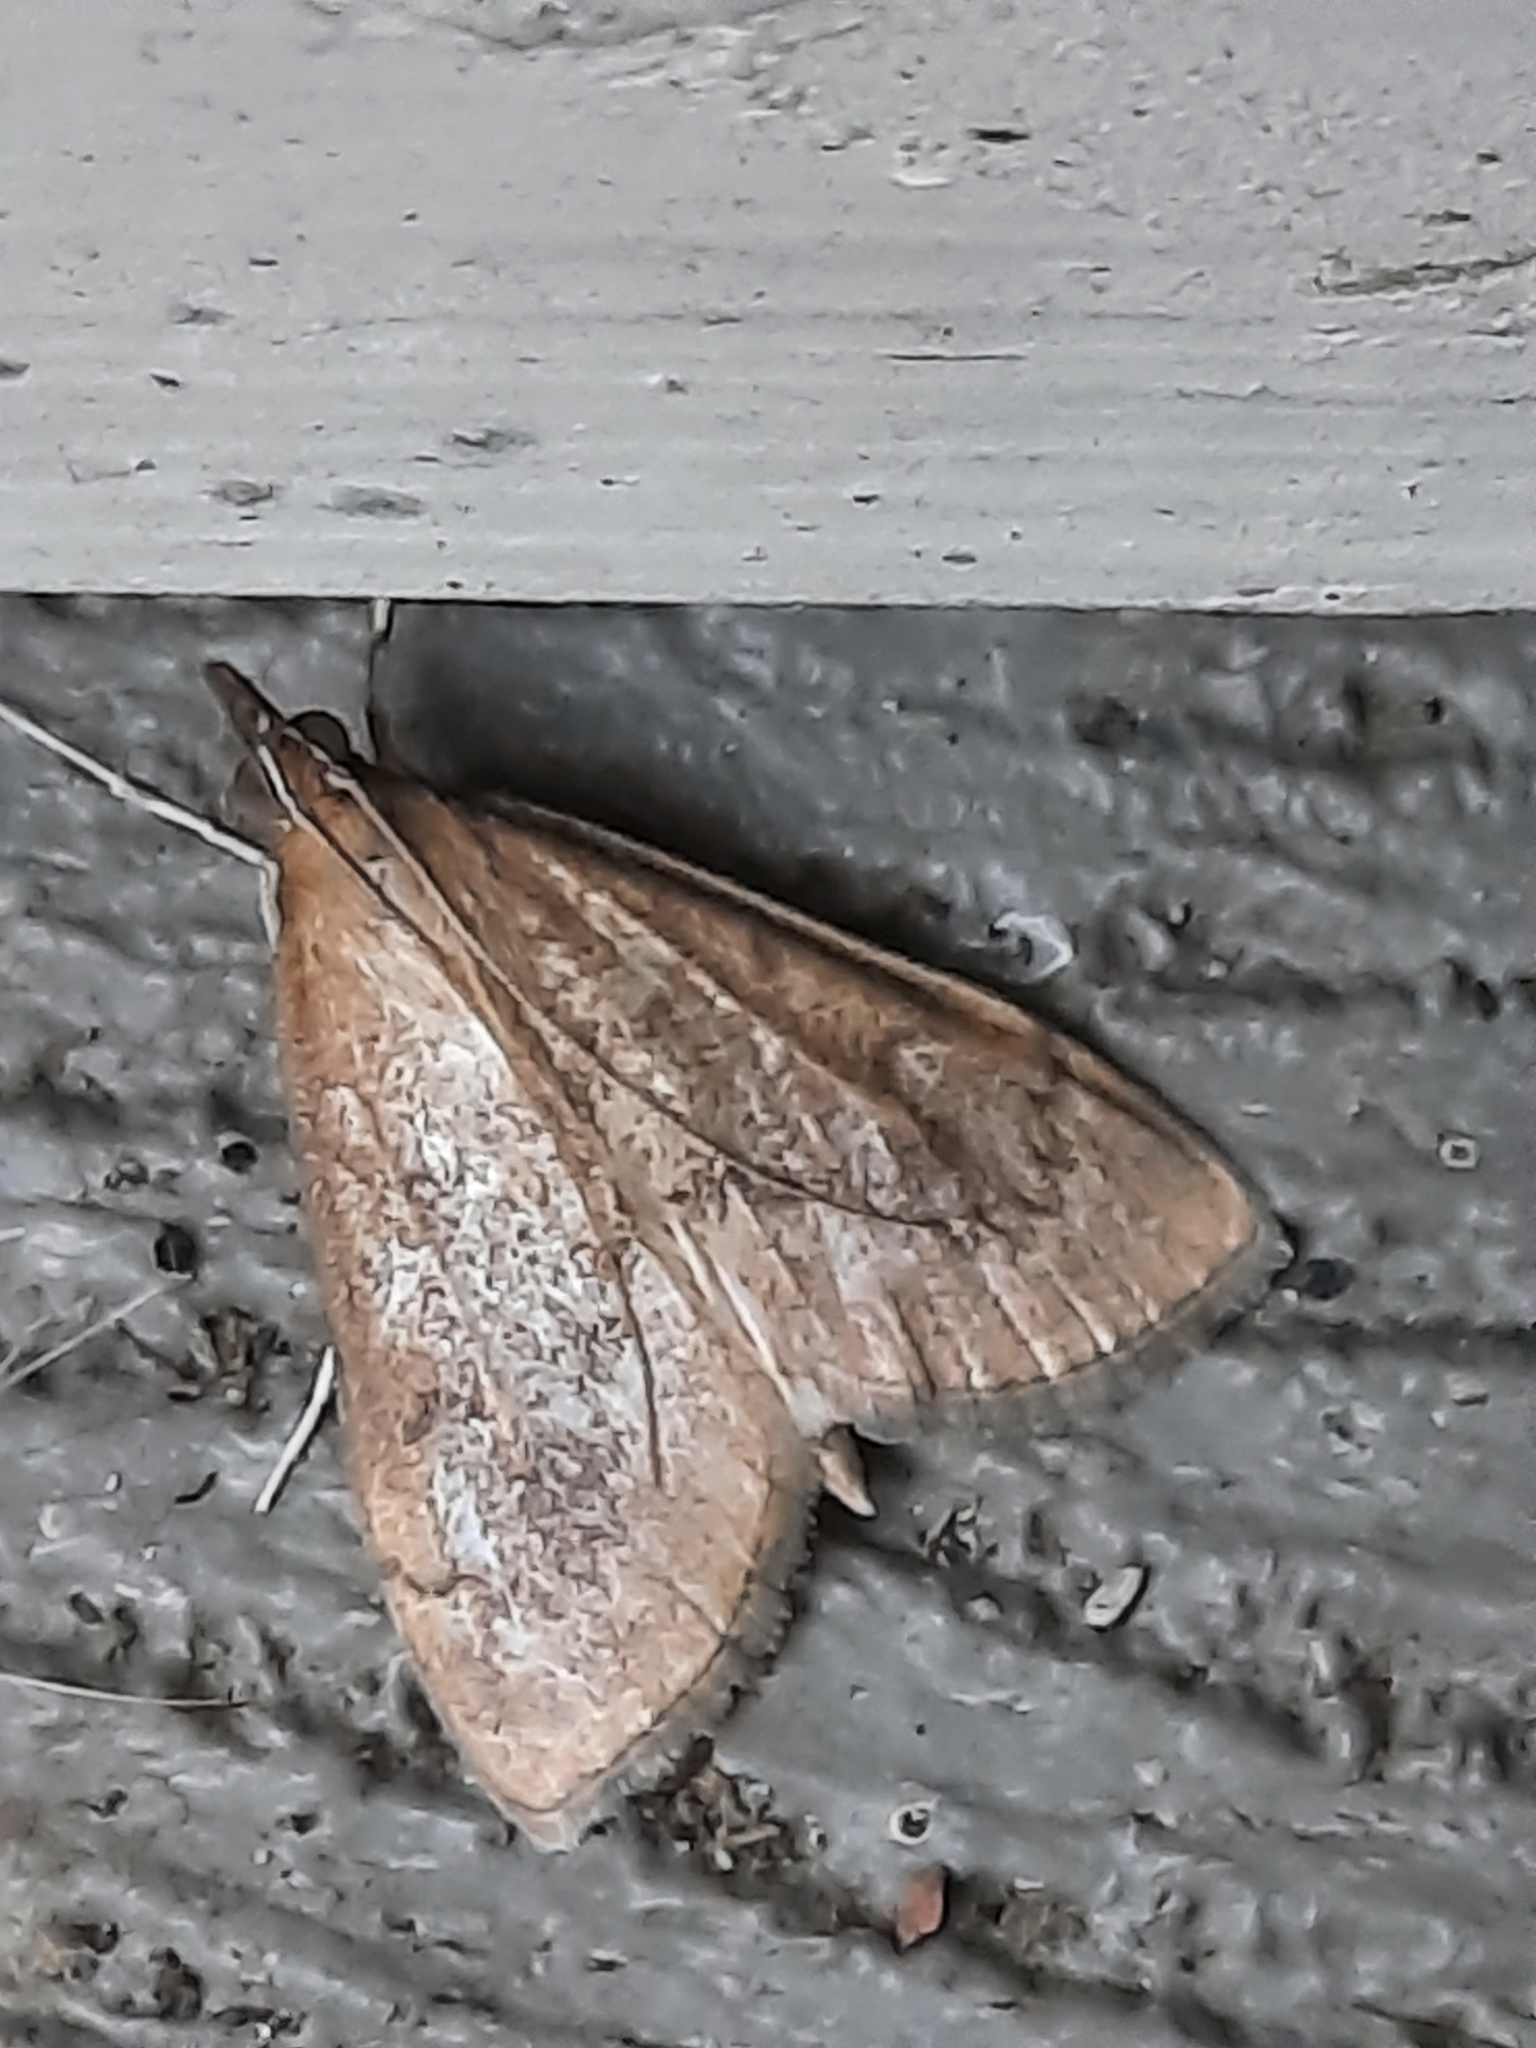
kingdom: Animalia
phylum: Arthropoda
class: Insecta
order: Lepidoptera
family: Crambidae
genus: Saucrobotys
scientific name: Saucrobotys futilalis
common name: Dogbane saucrobotys moth
